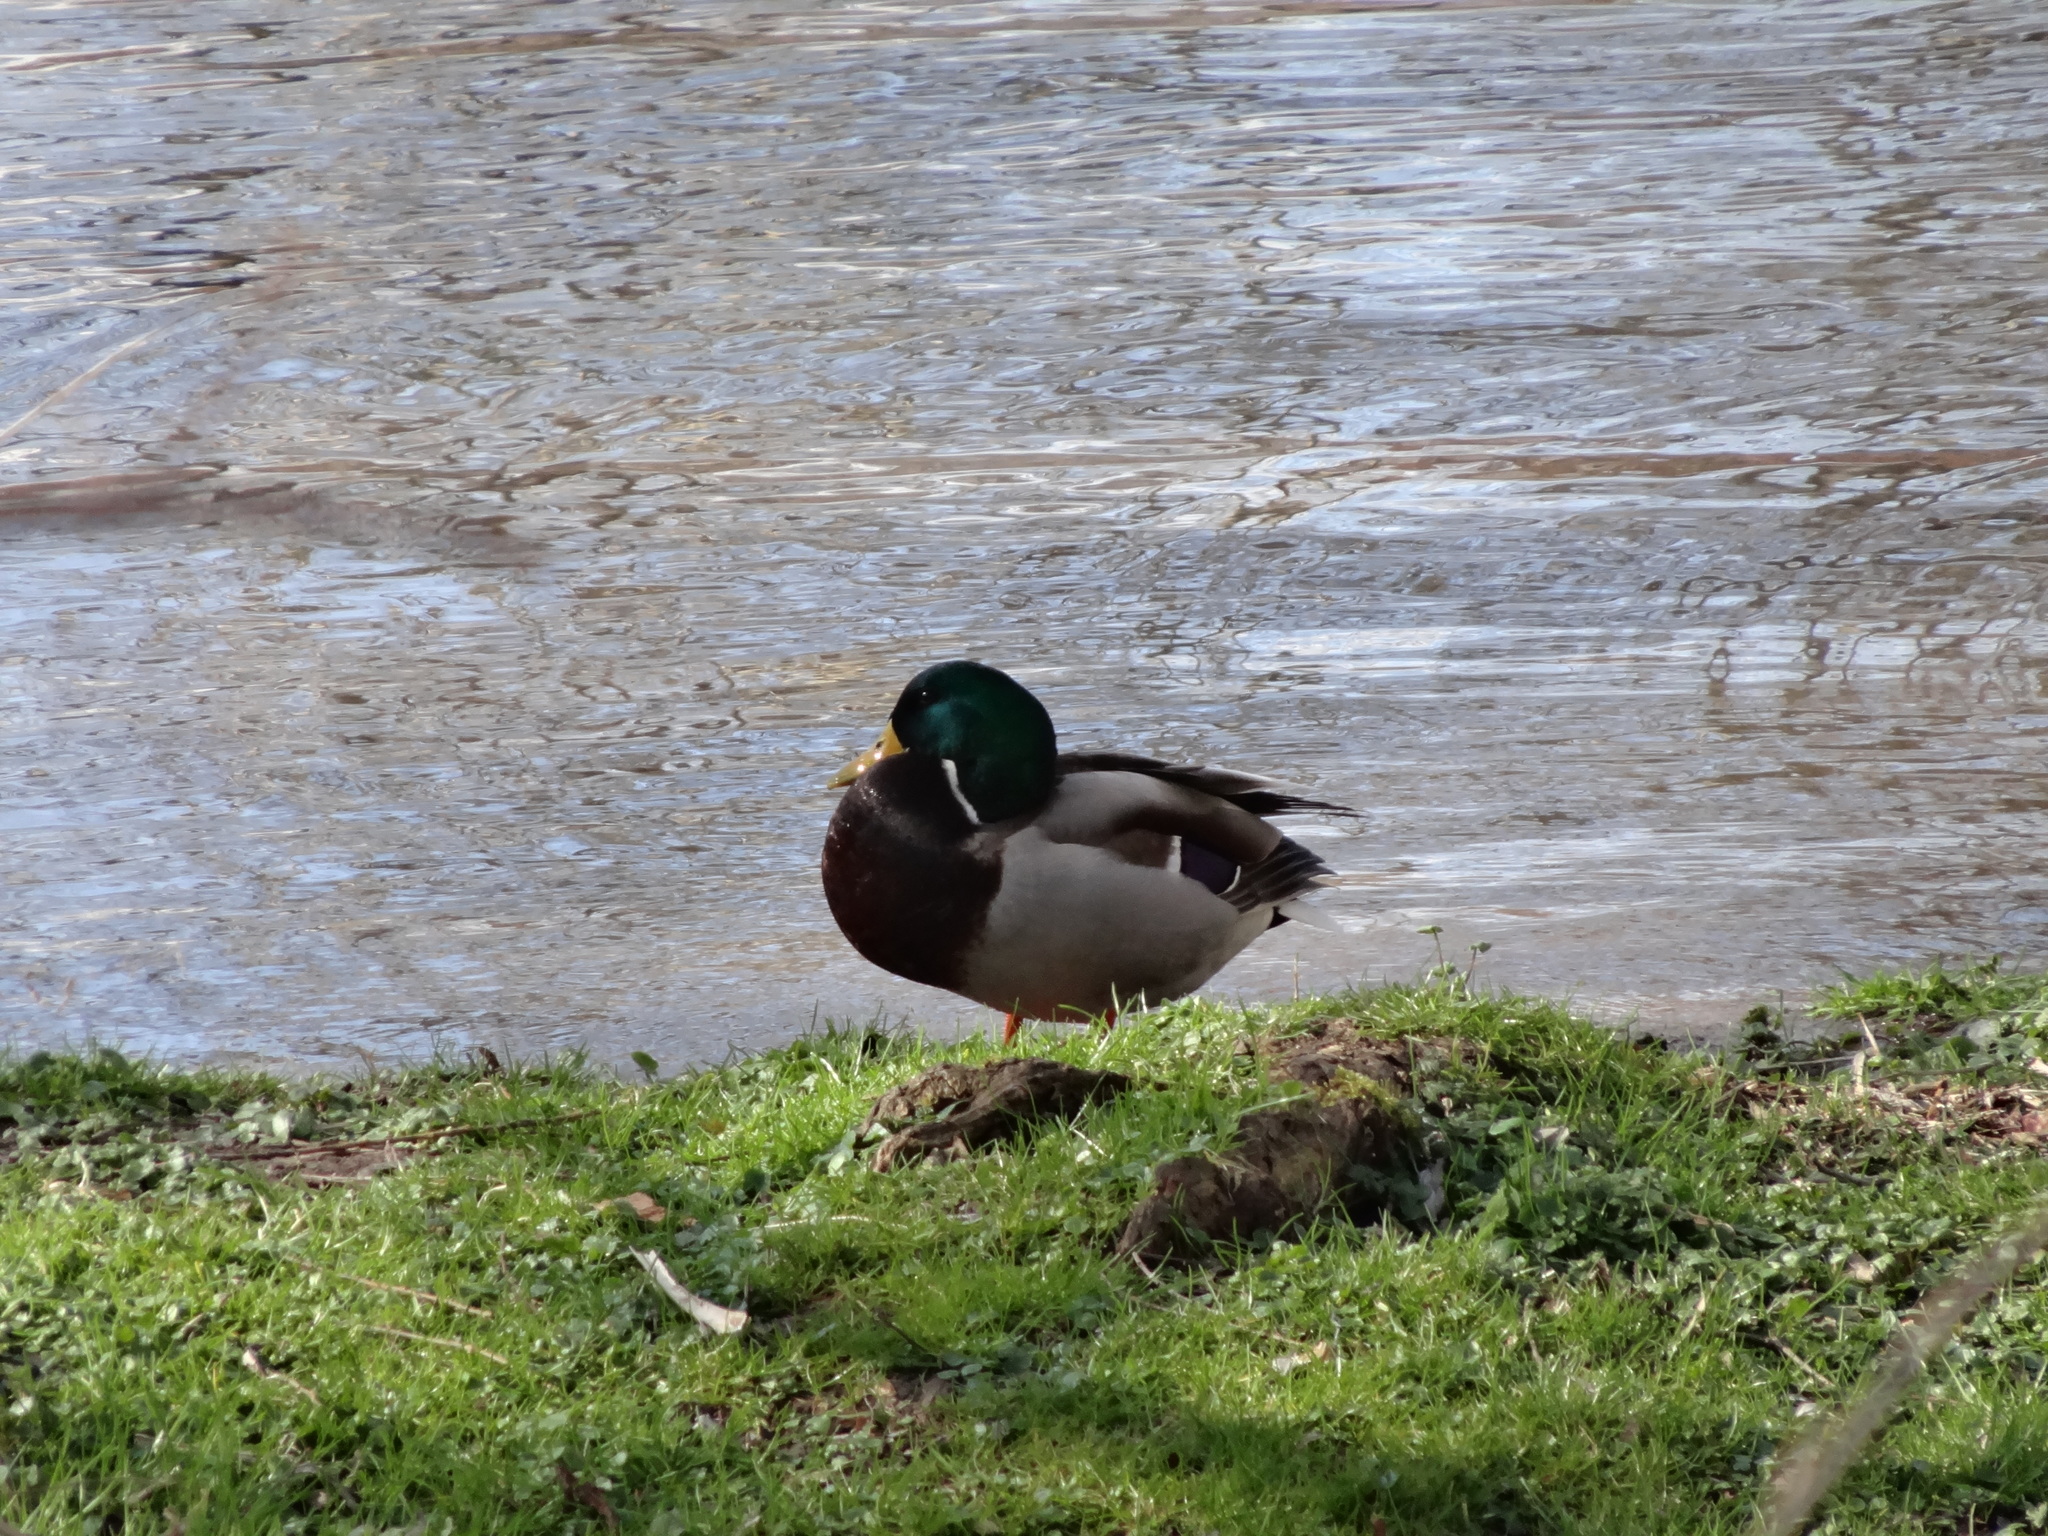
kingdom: Animalia
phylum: Chordata
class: Aves
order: Anseriformes
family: Anatidae
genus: Anas
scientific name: Anas platyrhynchos
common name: Mallard
